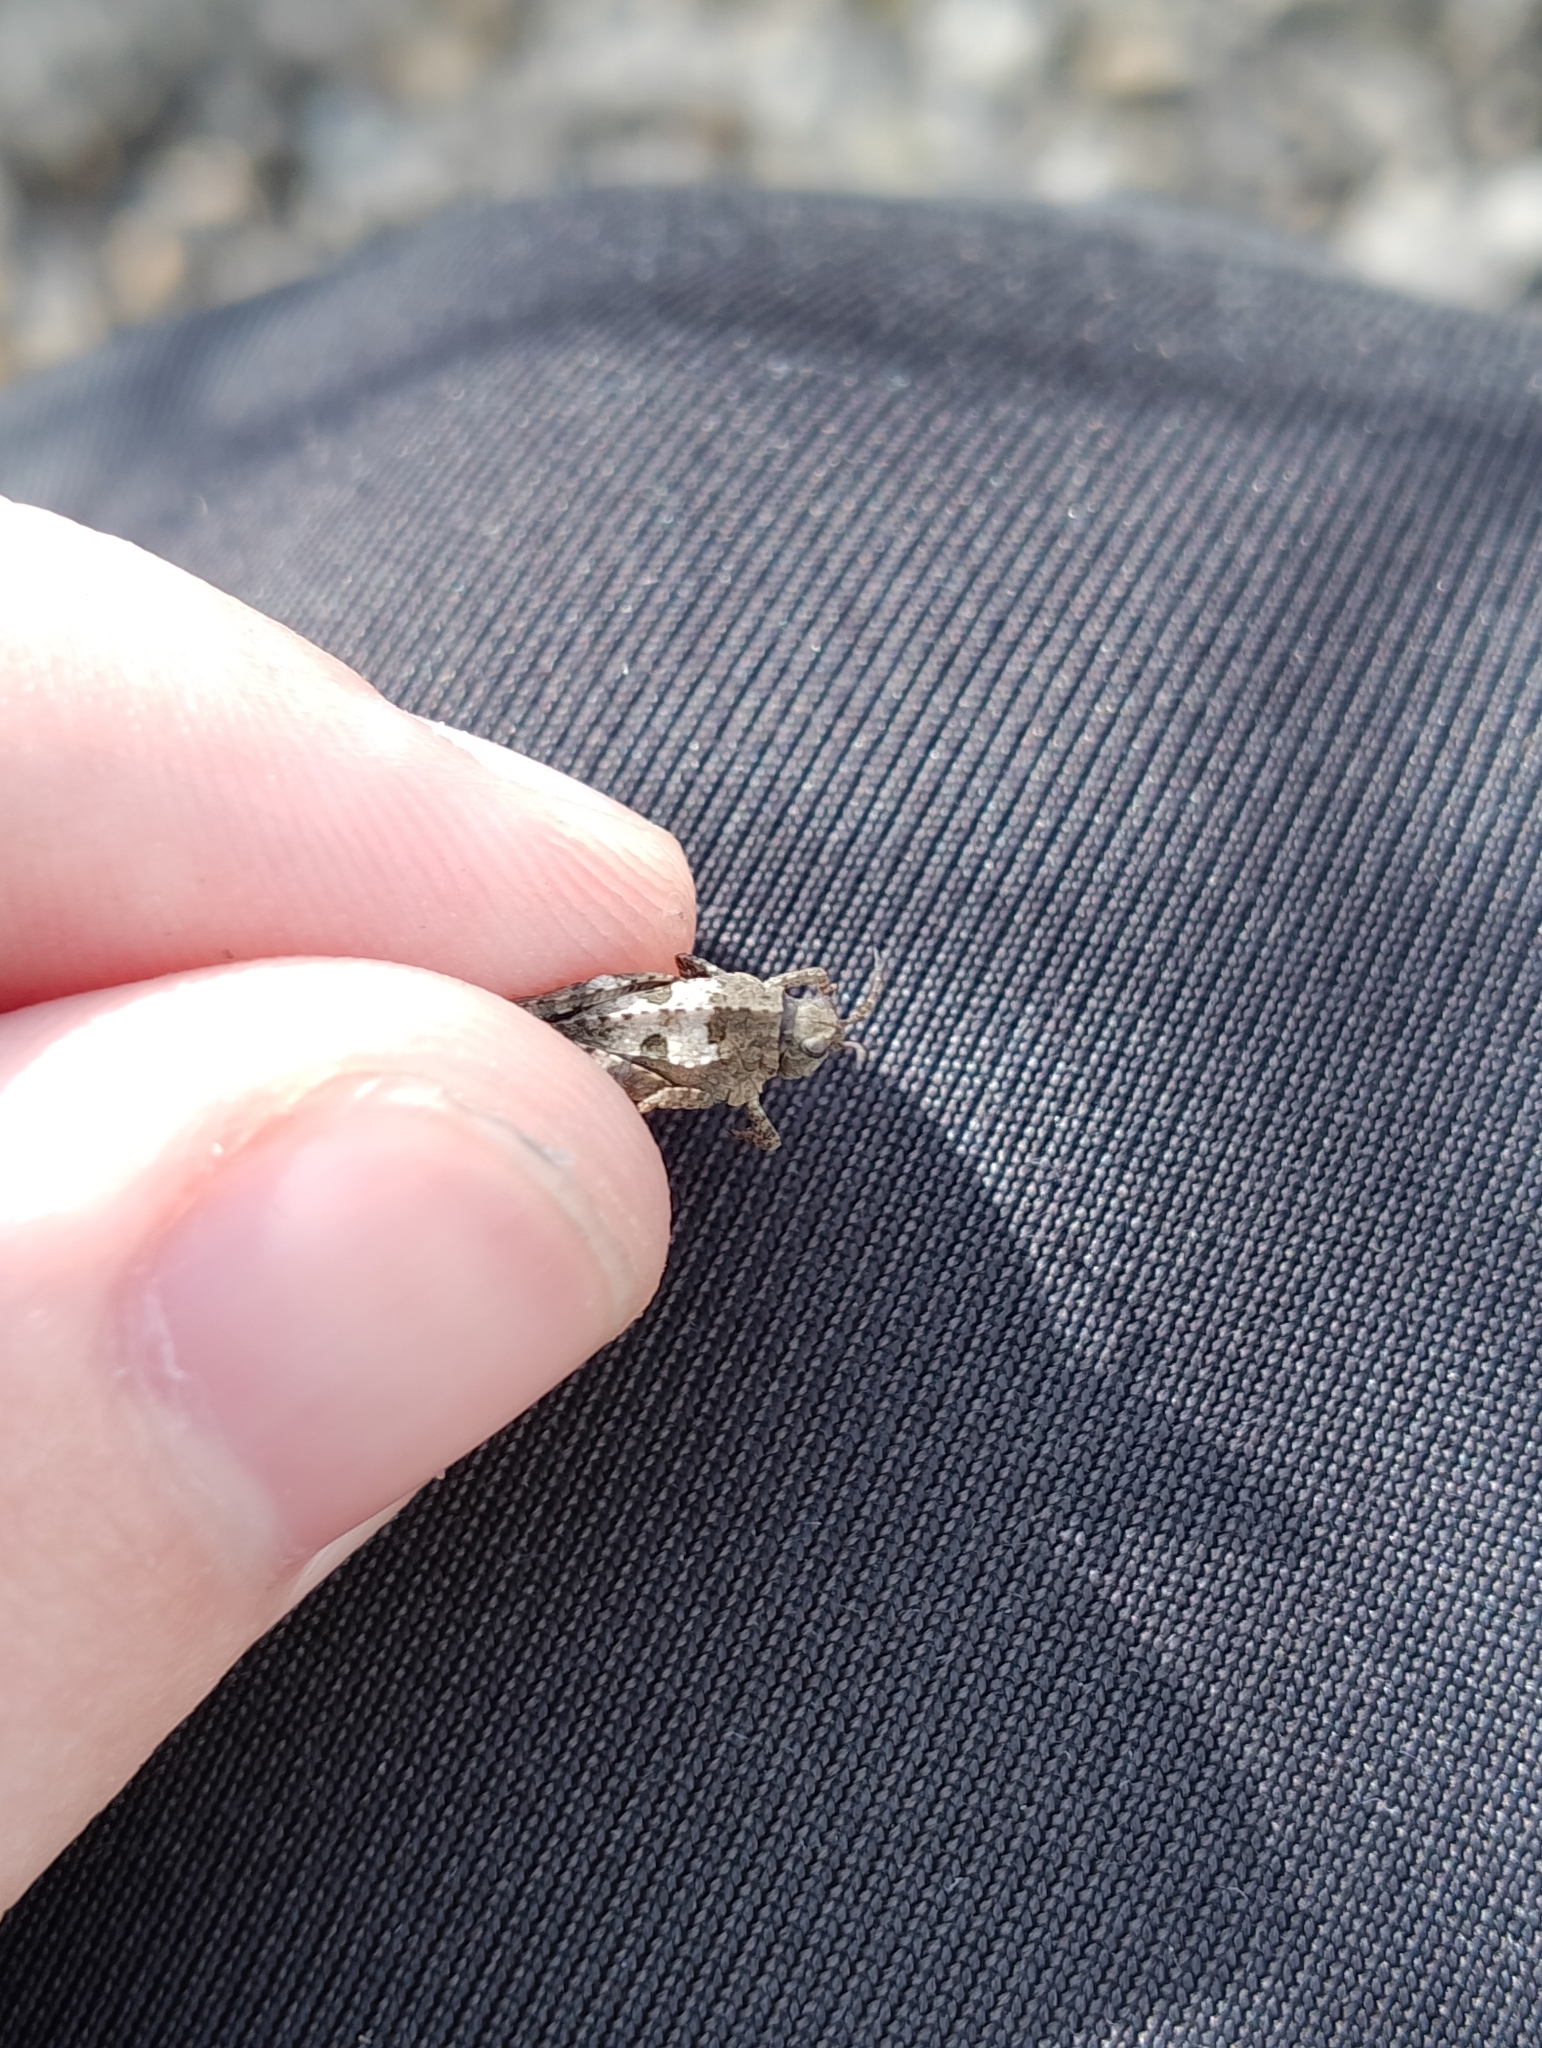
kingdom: Animalia
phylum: Arthropoda
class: Insecta
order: Orthoptera
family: Tetrigidae
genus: Tetrix
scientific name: Tetrix
